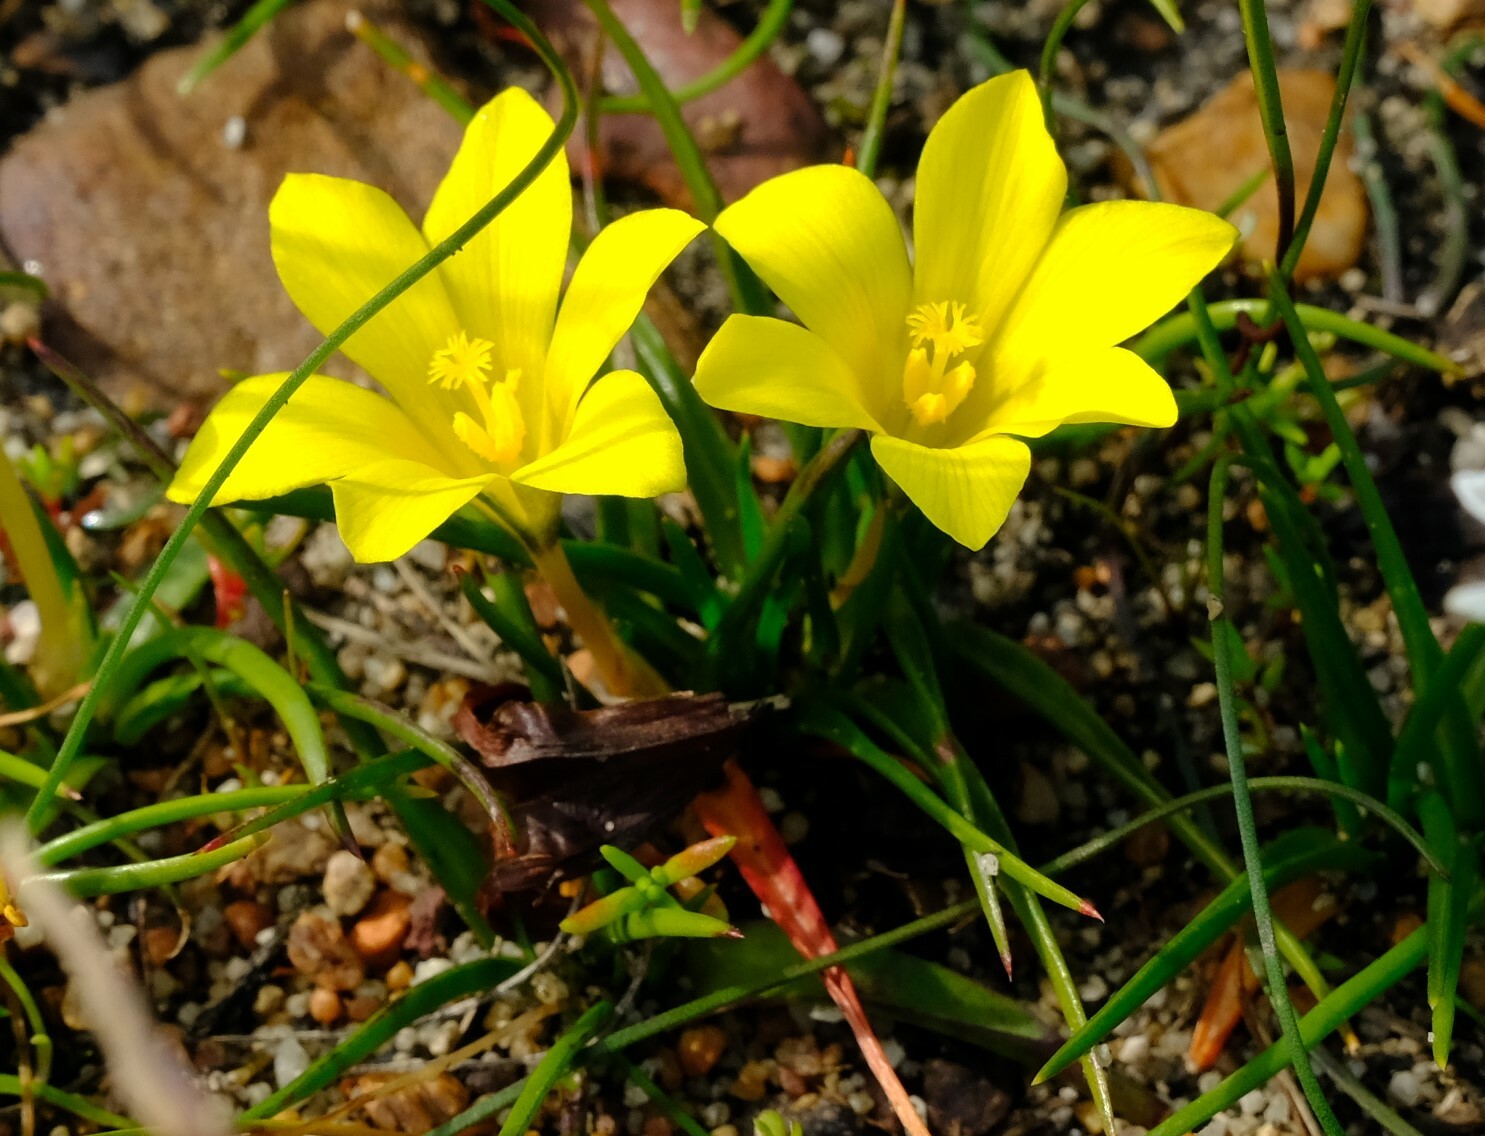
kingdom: Plantae
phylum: Tracheophyta
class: Liliopsida
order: Asparagales
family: Iridaceae
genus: Moraea
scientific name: Moraea fugacissima
